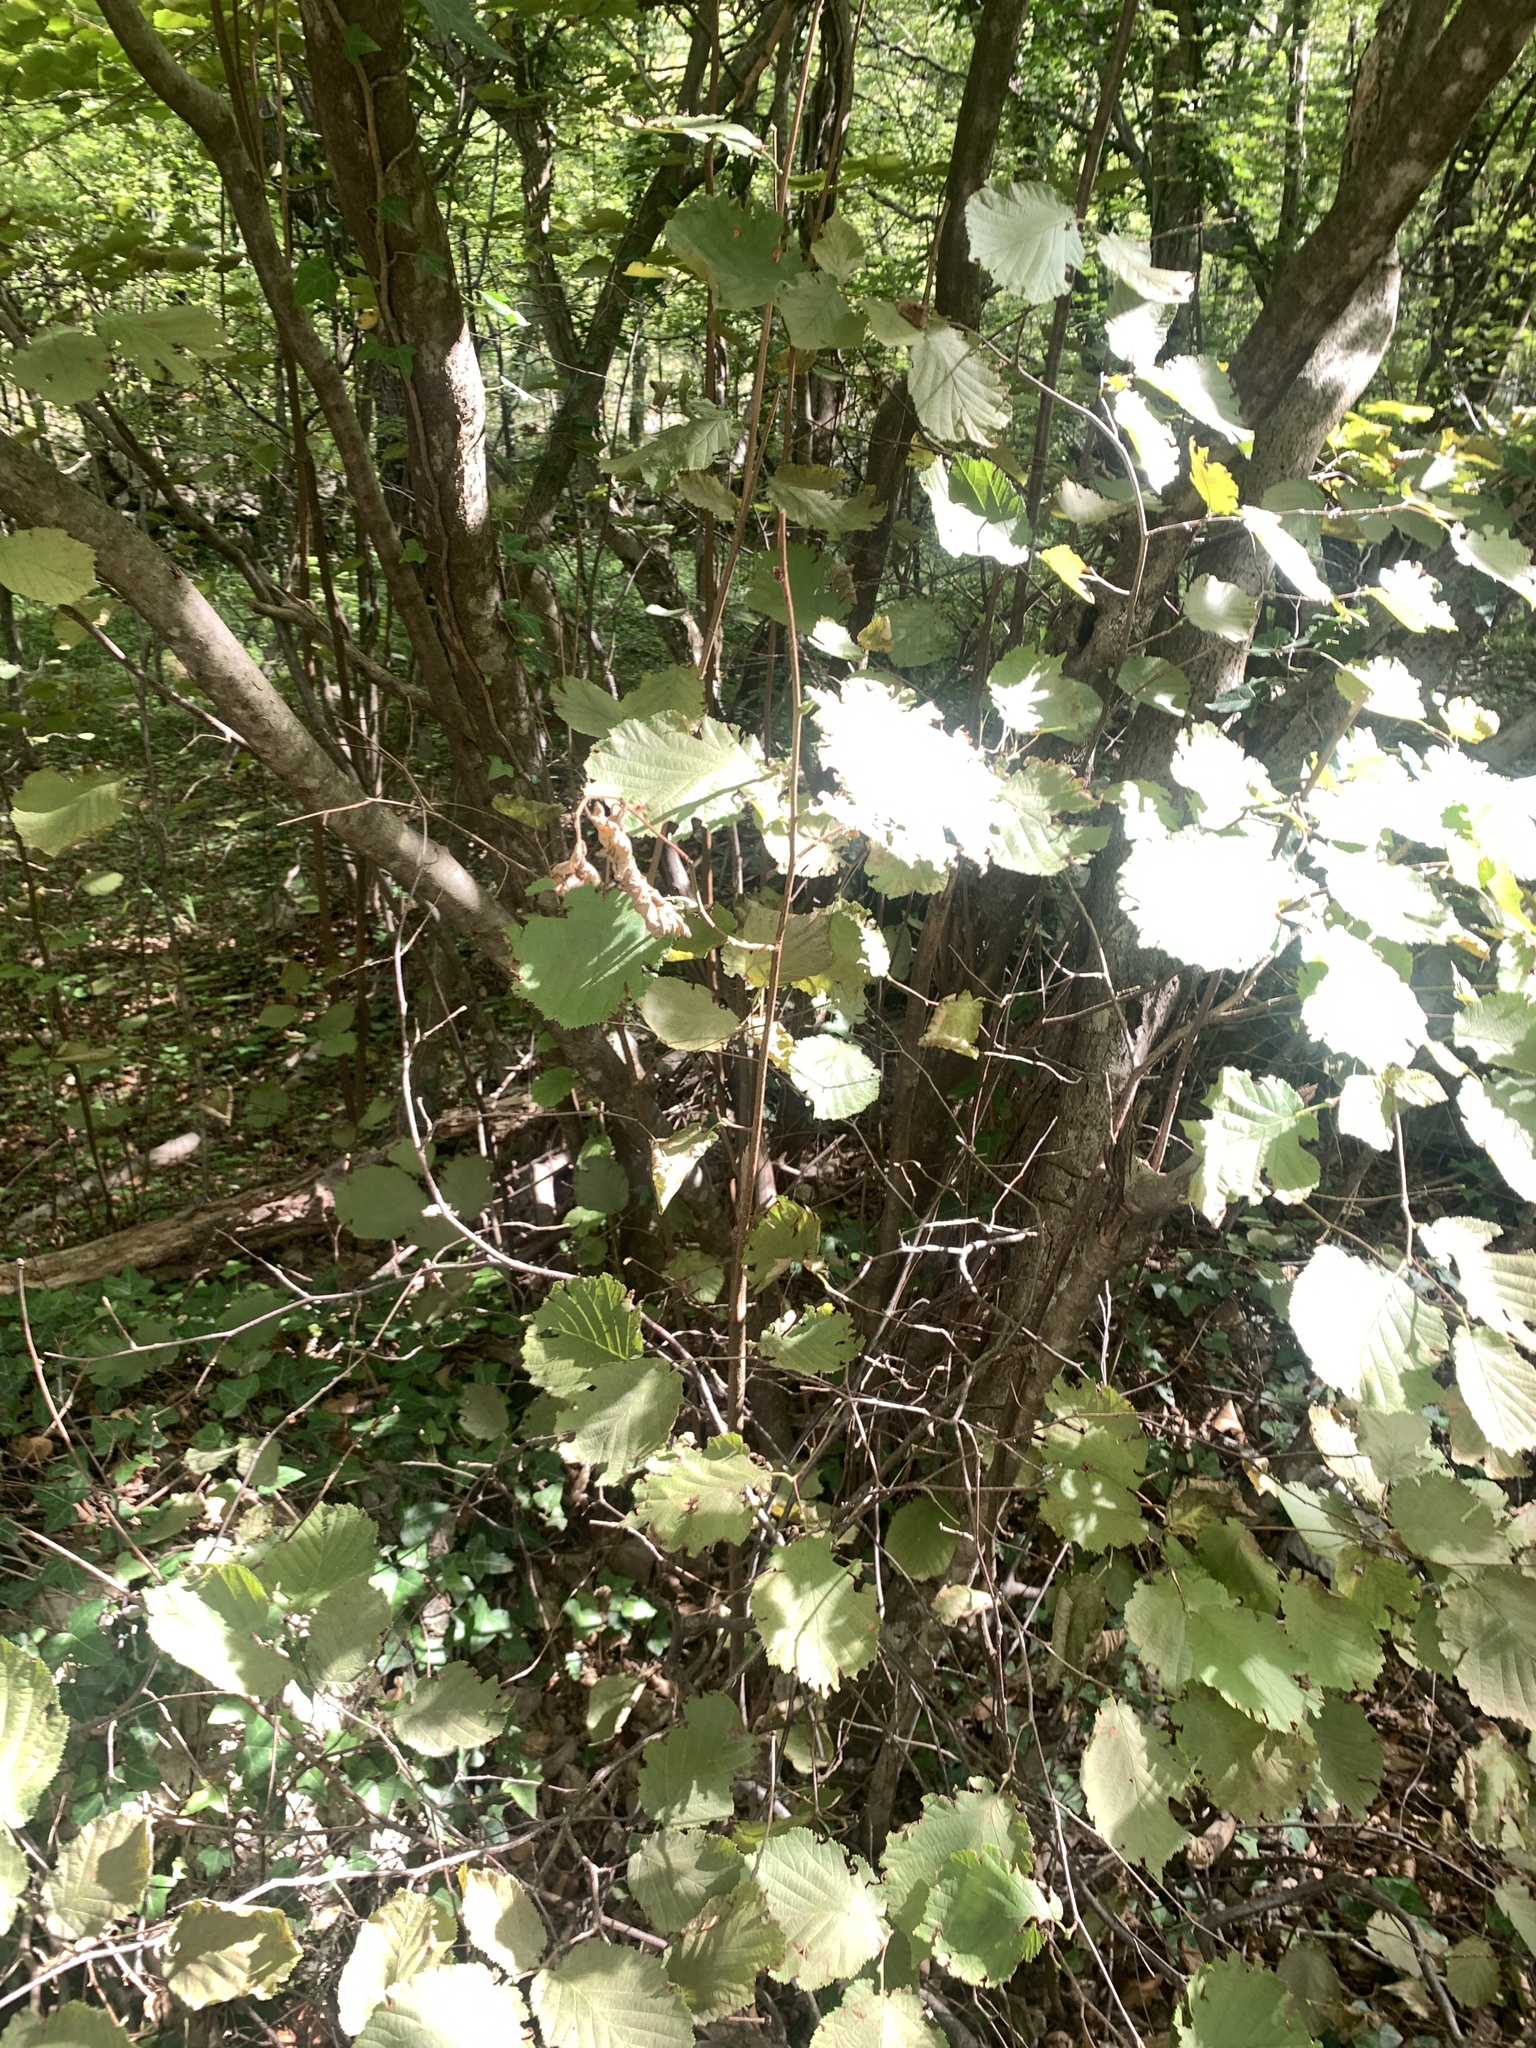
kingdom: Plantae
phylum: Tracheophyta
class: Magnoliopsida
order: Fagales
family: Betulaceae
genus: Corylus
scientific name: Corylus avellana
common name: European hazel
